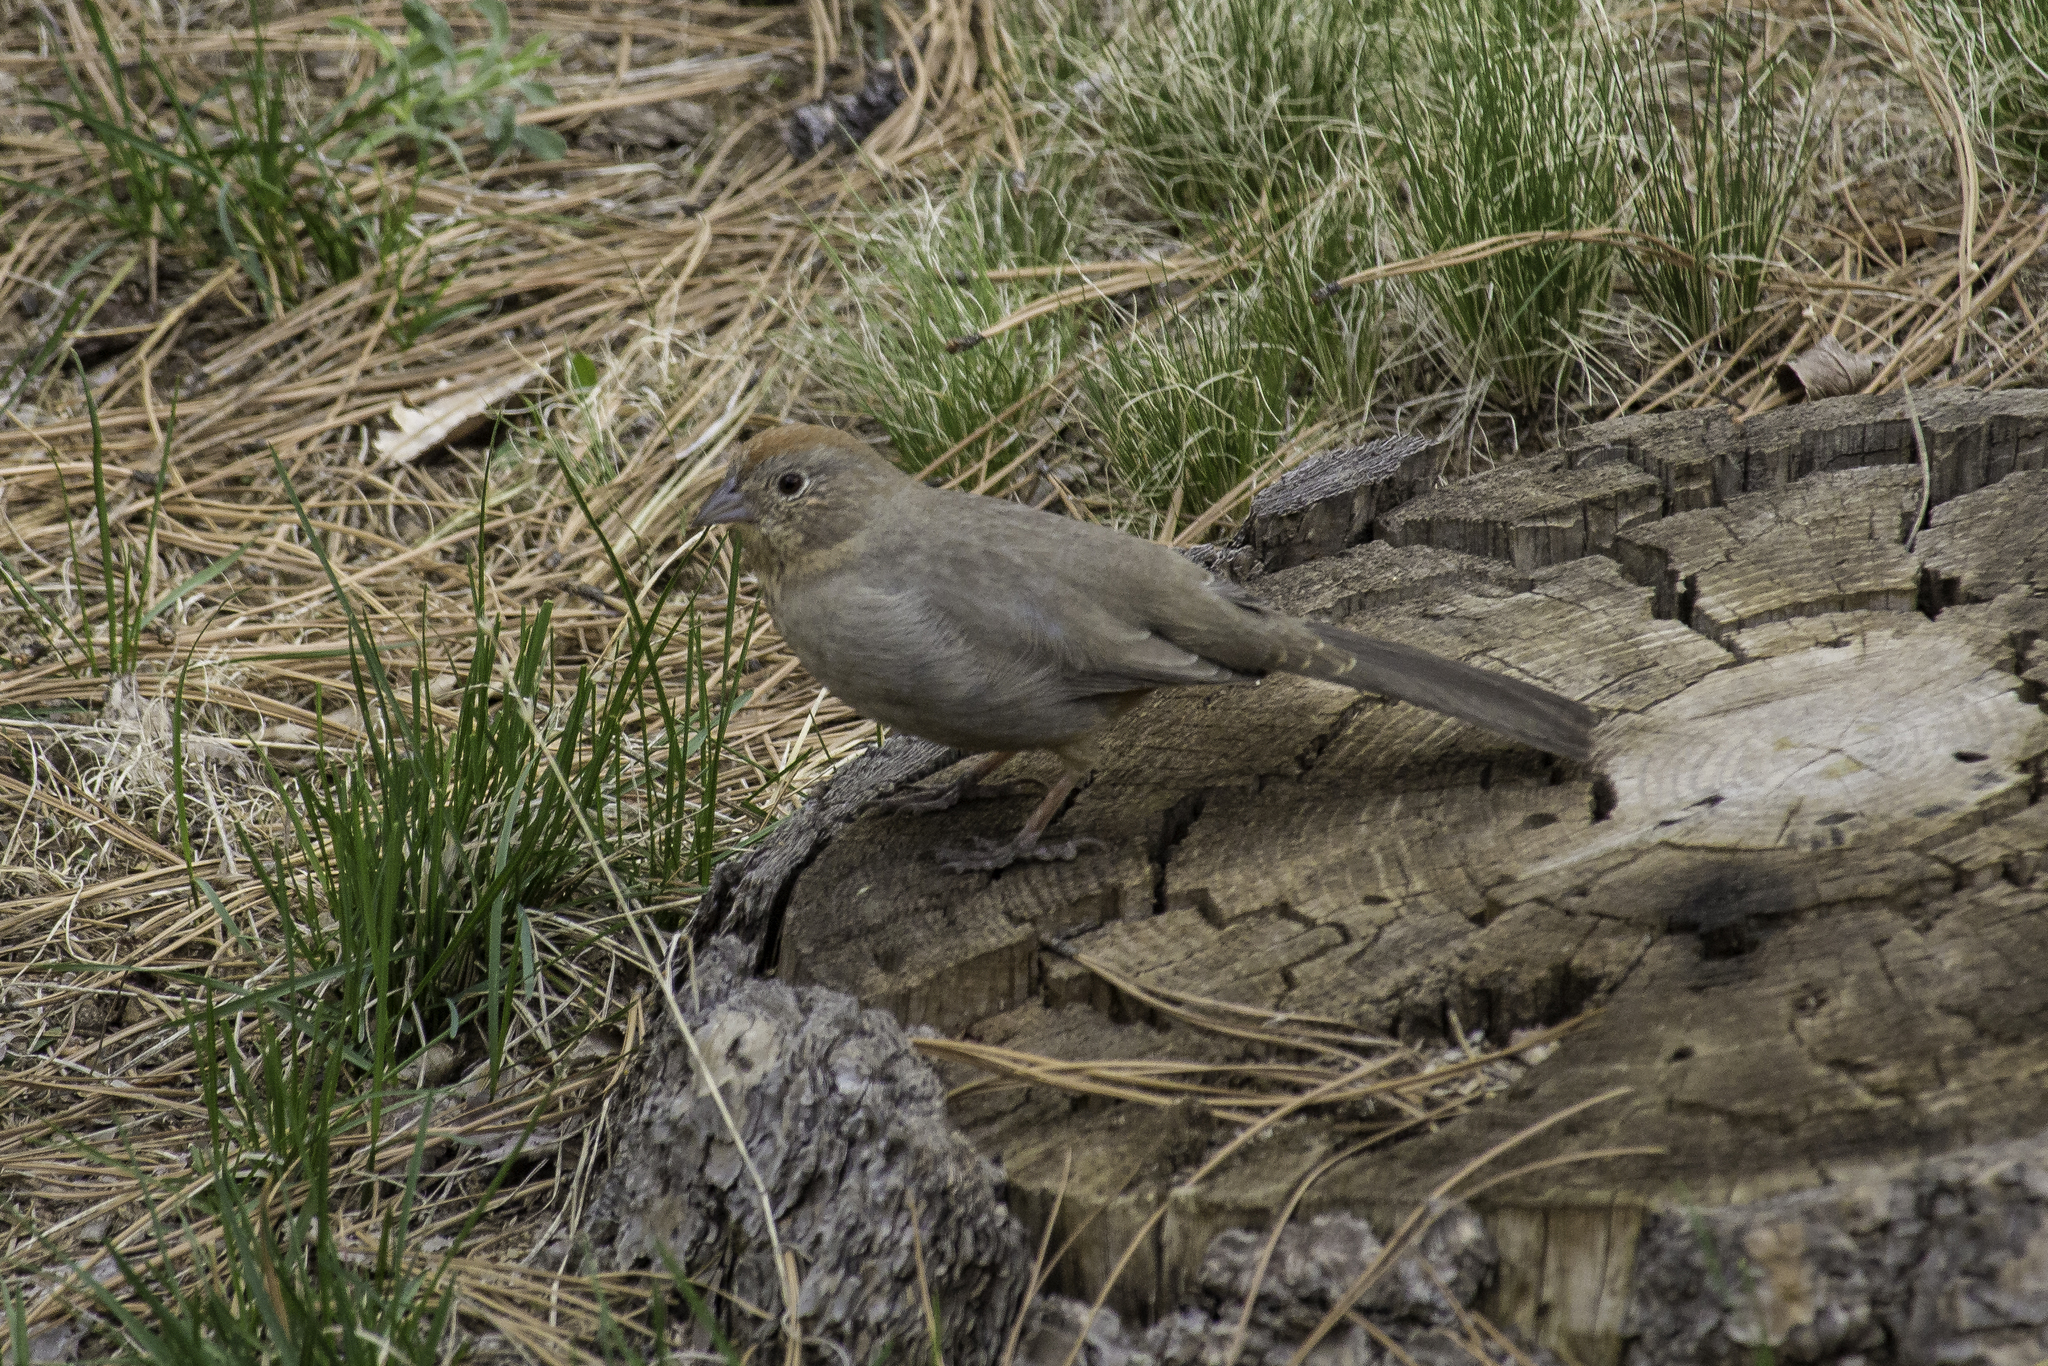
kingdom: Animalia
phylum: Chordata
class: Aves
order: Passeriformes
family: Passerellidae
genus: Melozone
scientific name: Melozone fusca
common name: Canyon towhee
